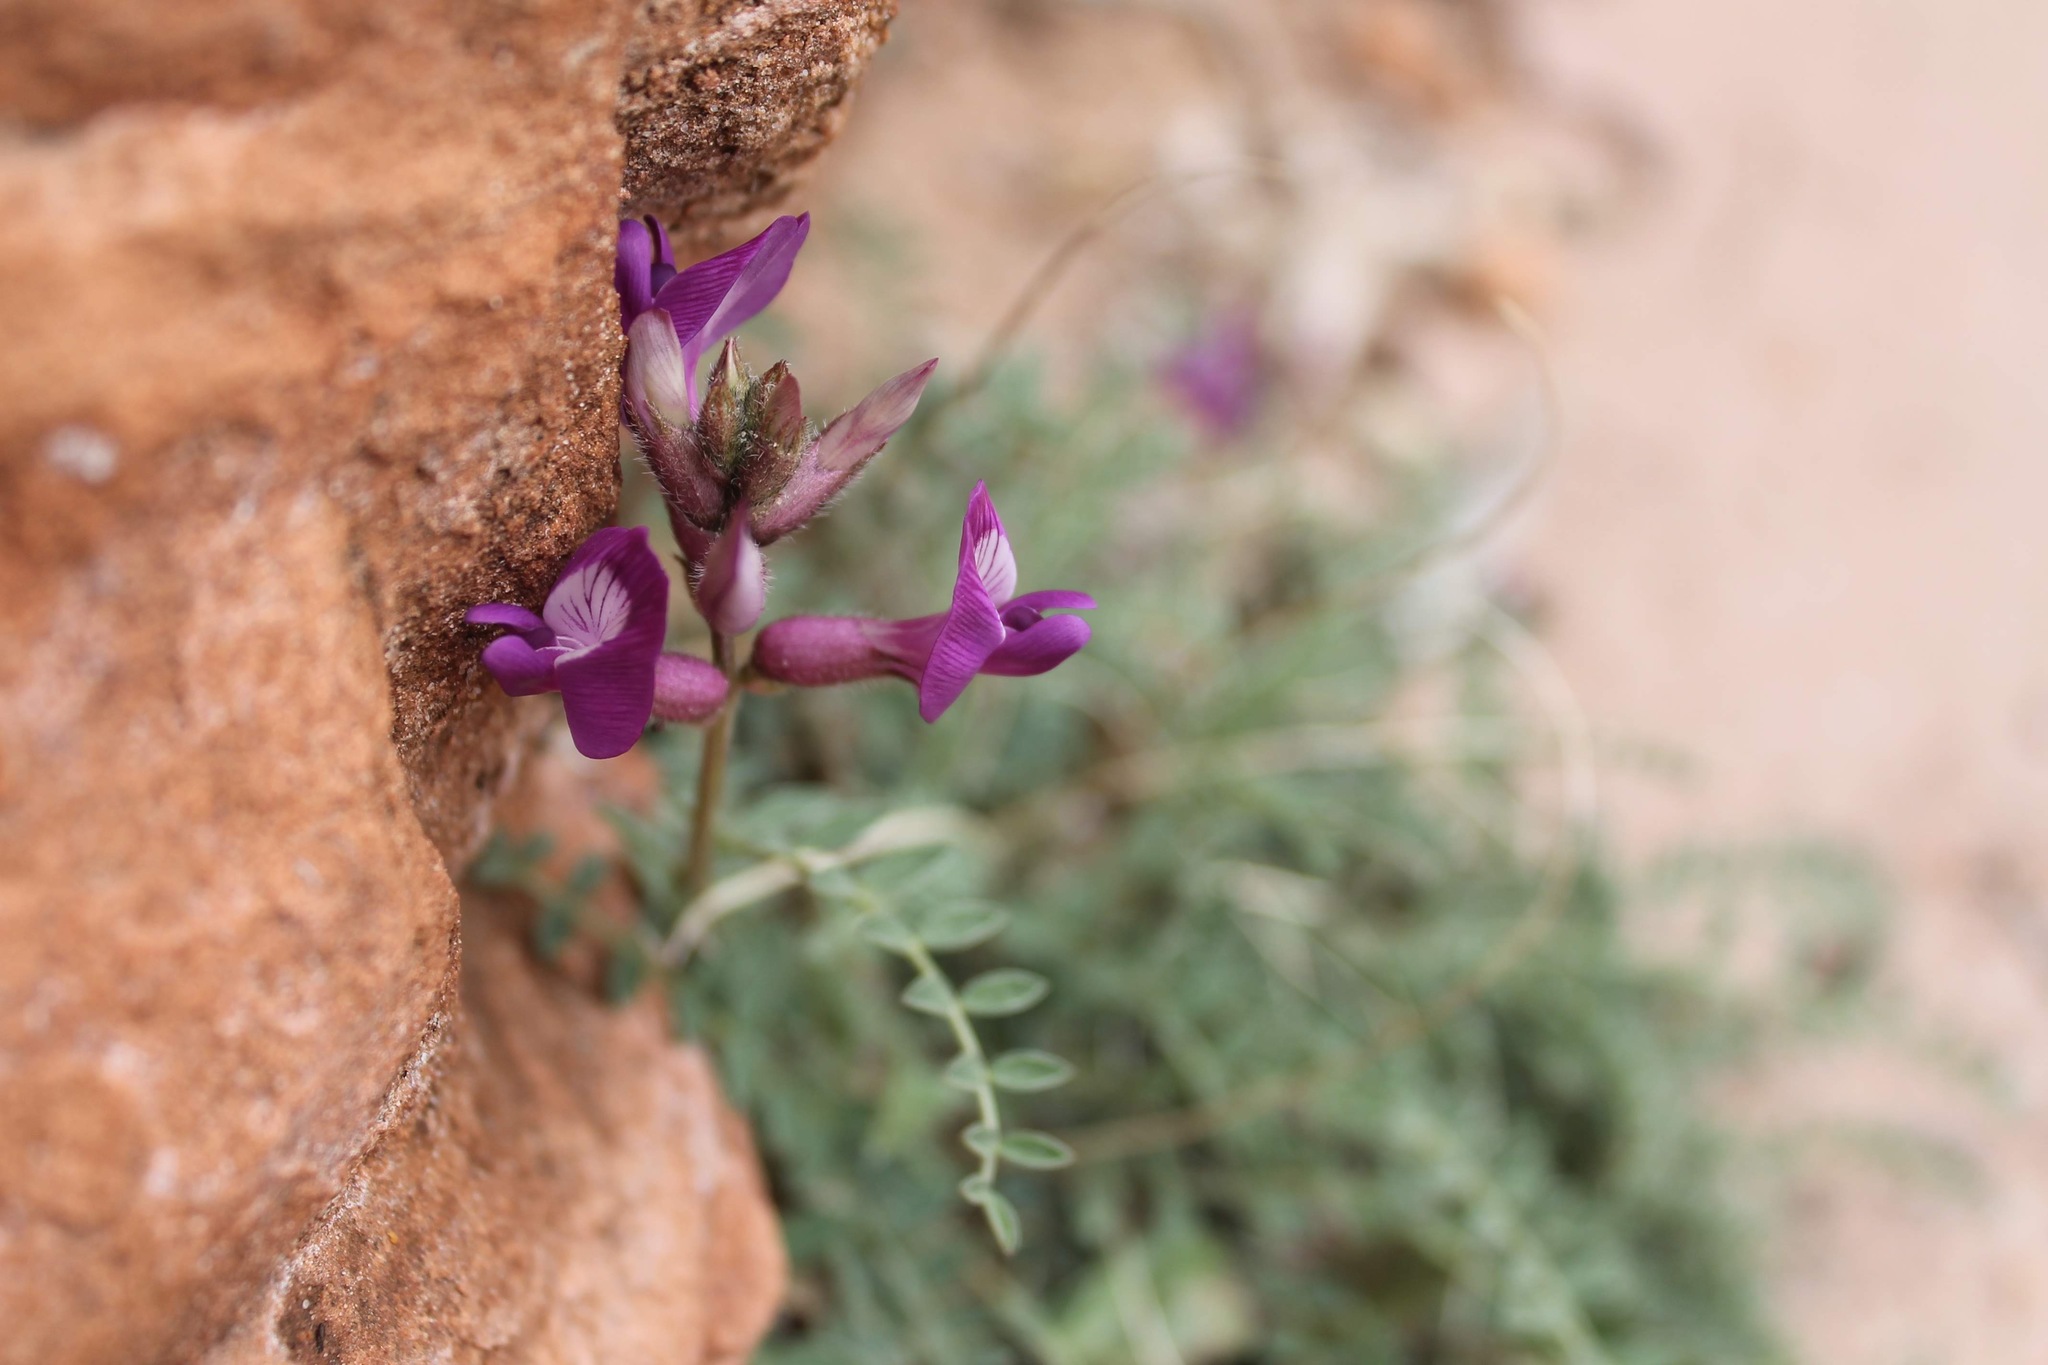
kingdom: Plantae
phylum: Tracheophyta
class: Magnoliopsida
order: Fabales
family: Fabaceae
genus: Astragalus
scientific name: Astragalus zionis
